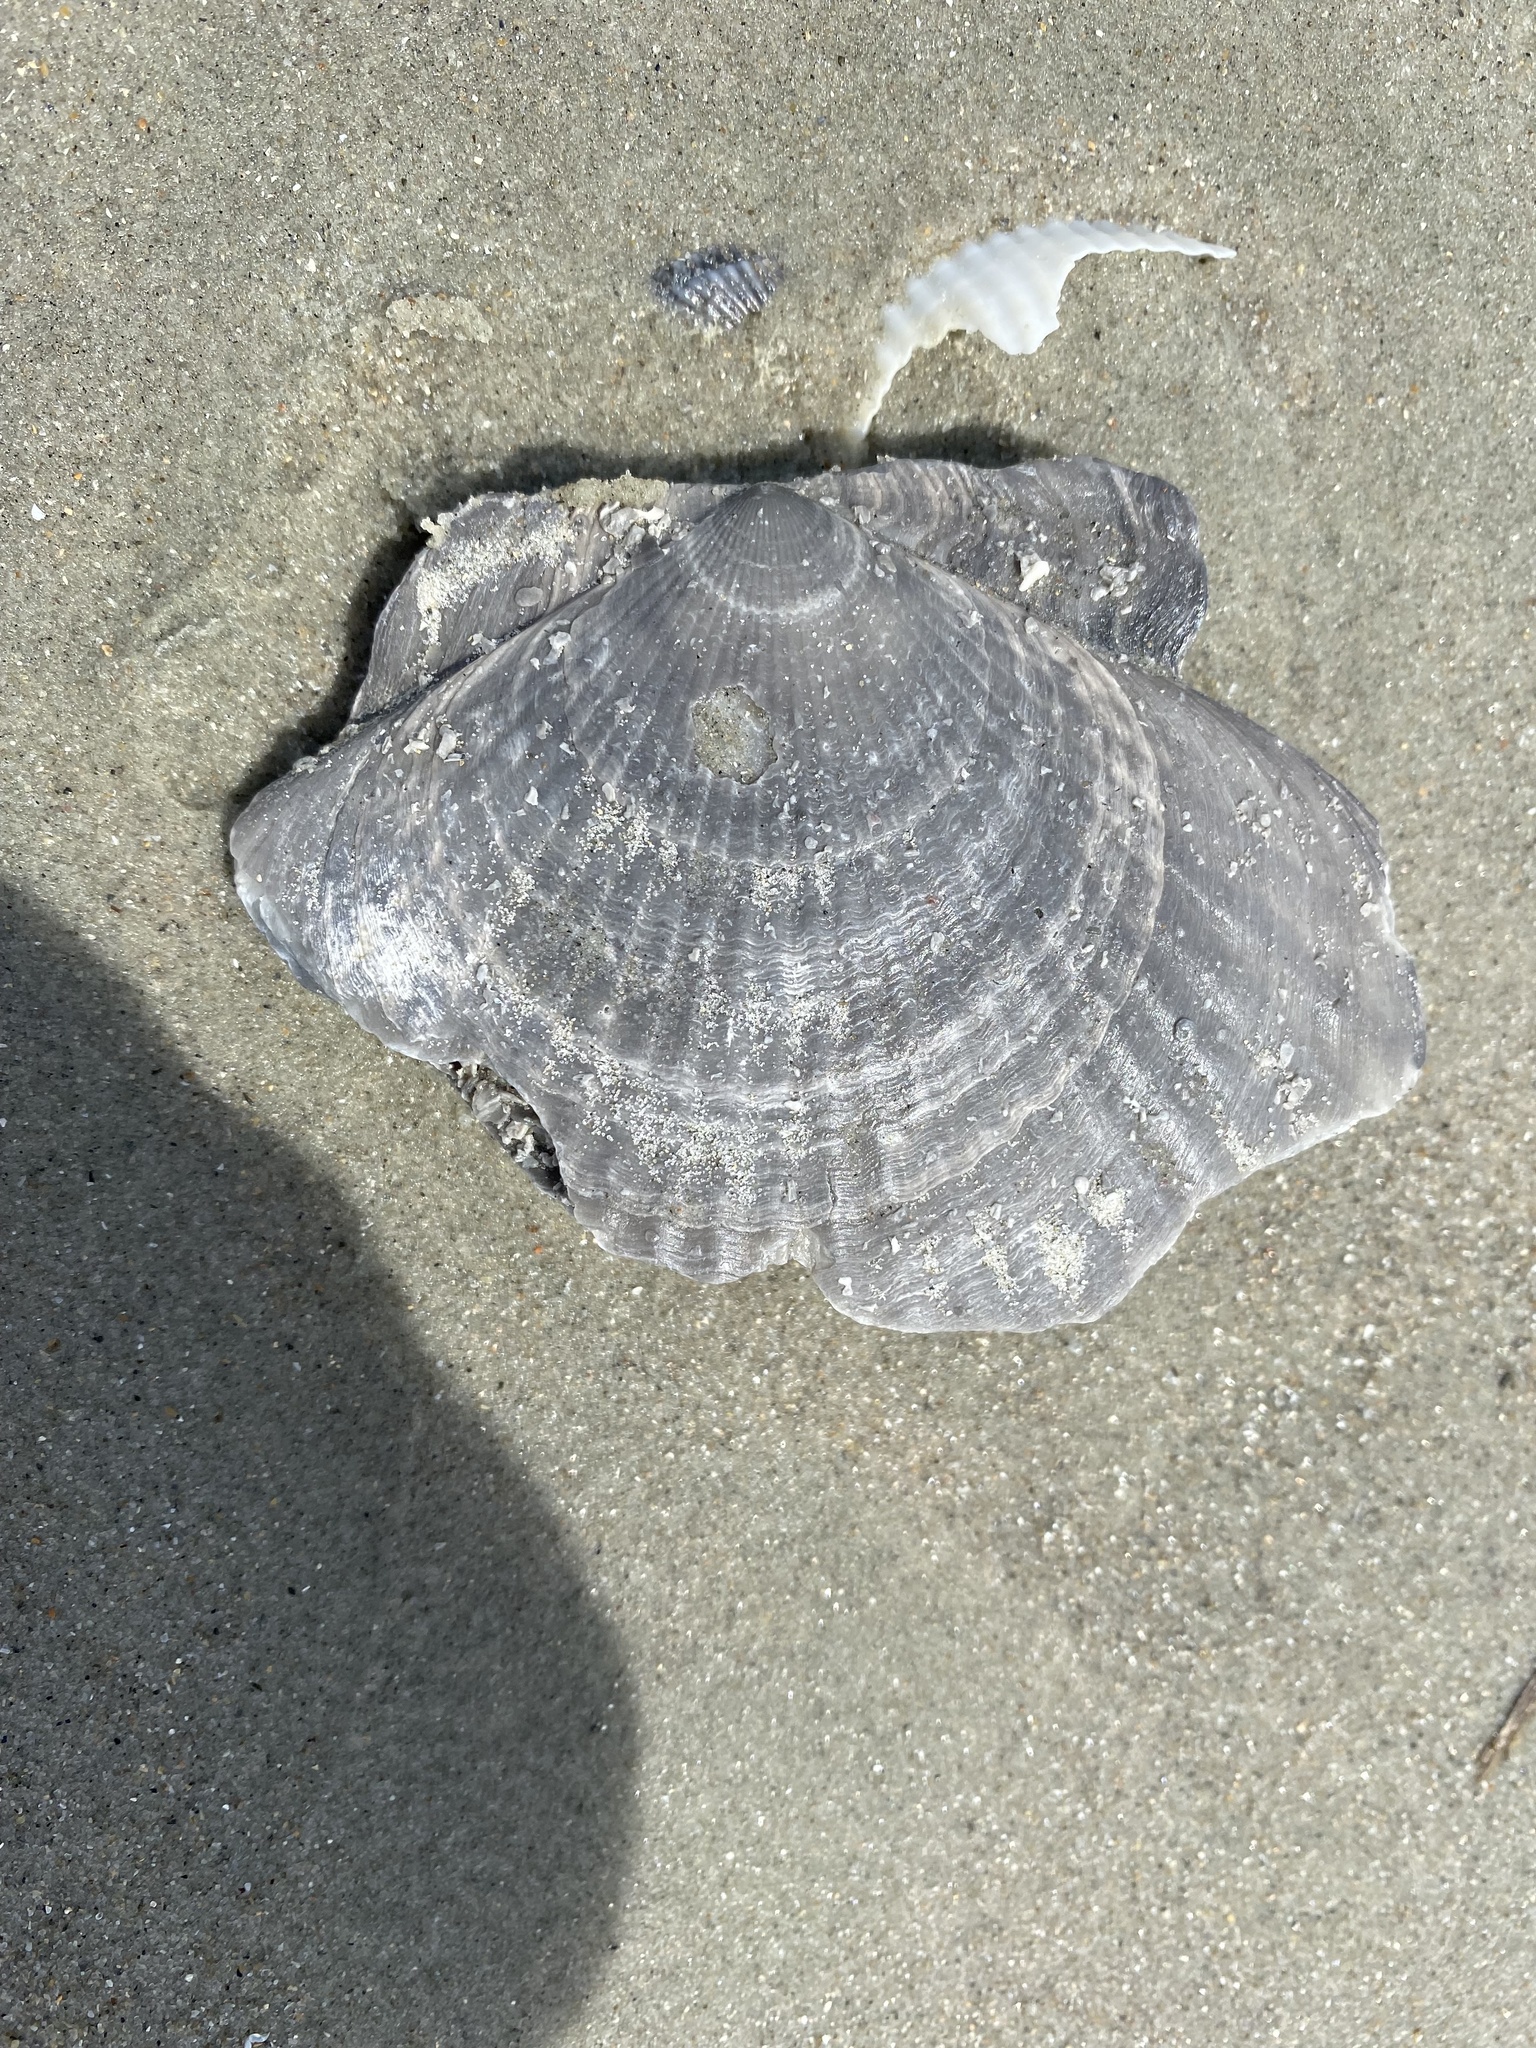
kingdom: Animalia
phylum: Mollusca
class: Bivalvia
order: Pectinida
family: Pectinidae
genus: Placopecten
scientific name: Placopecten magellanicus
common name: American sea scallop
